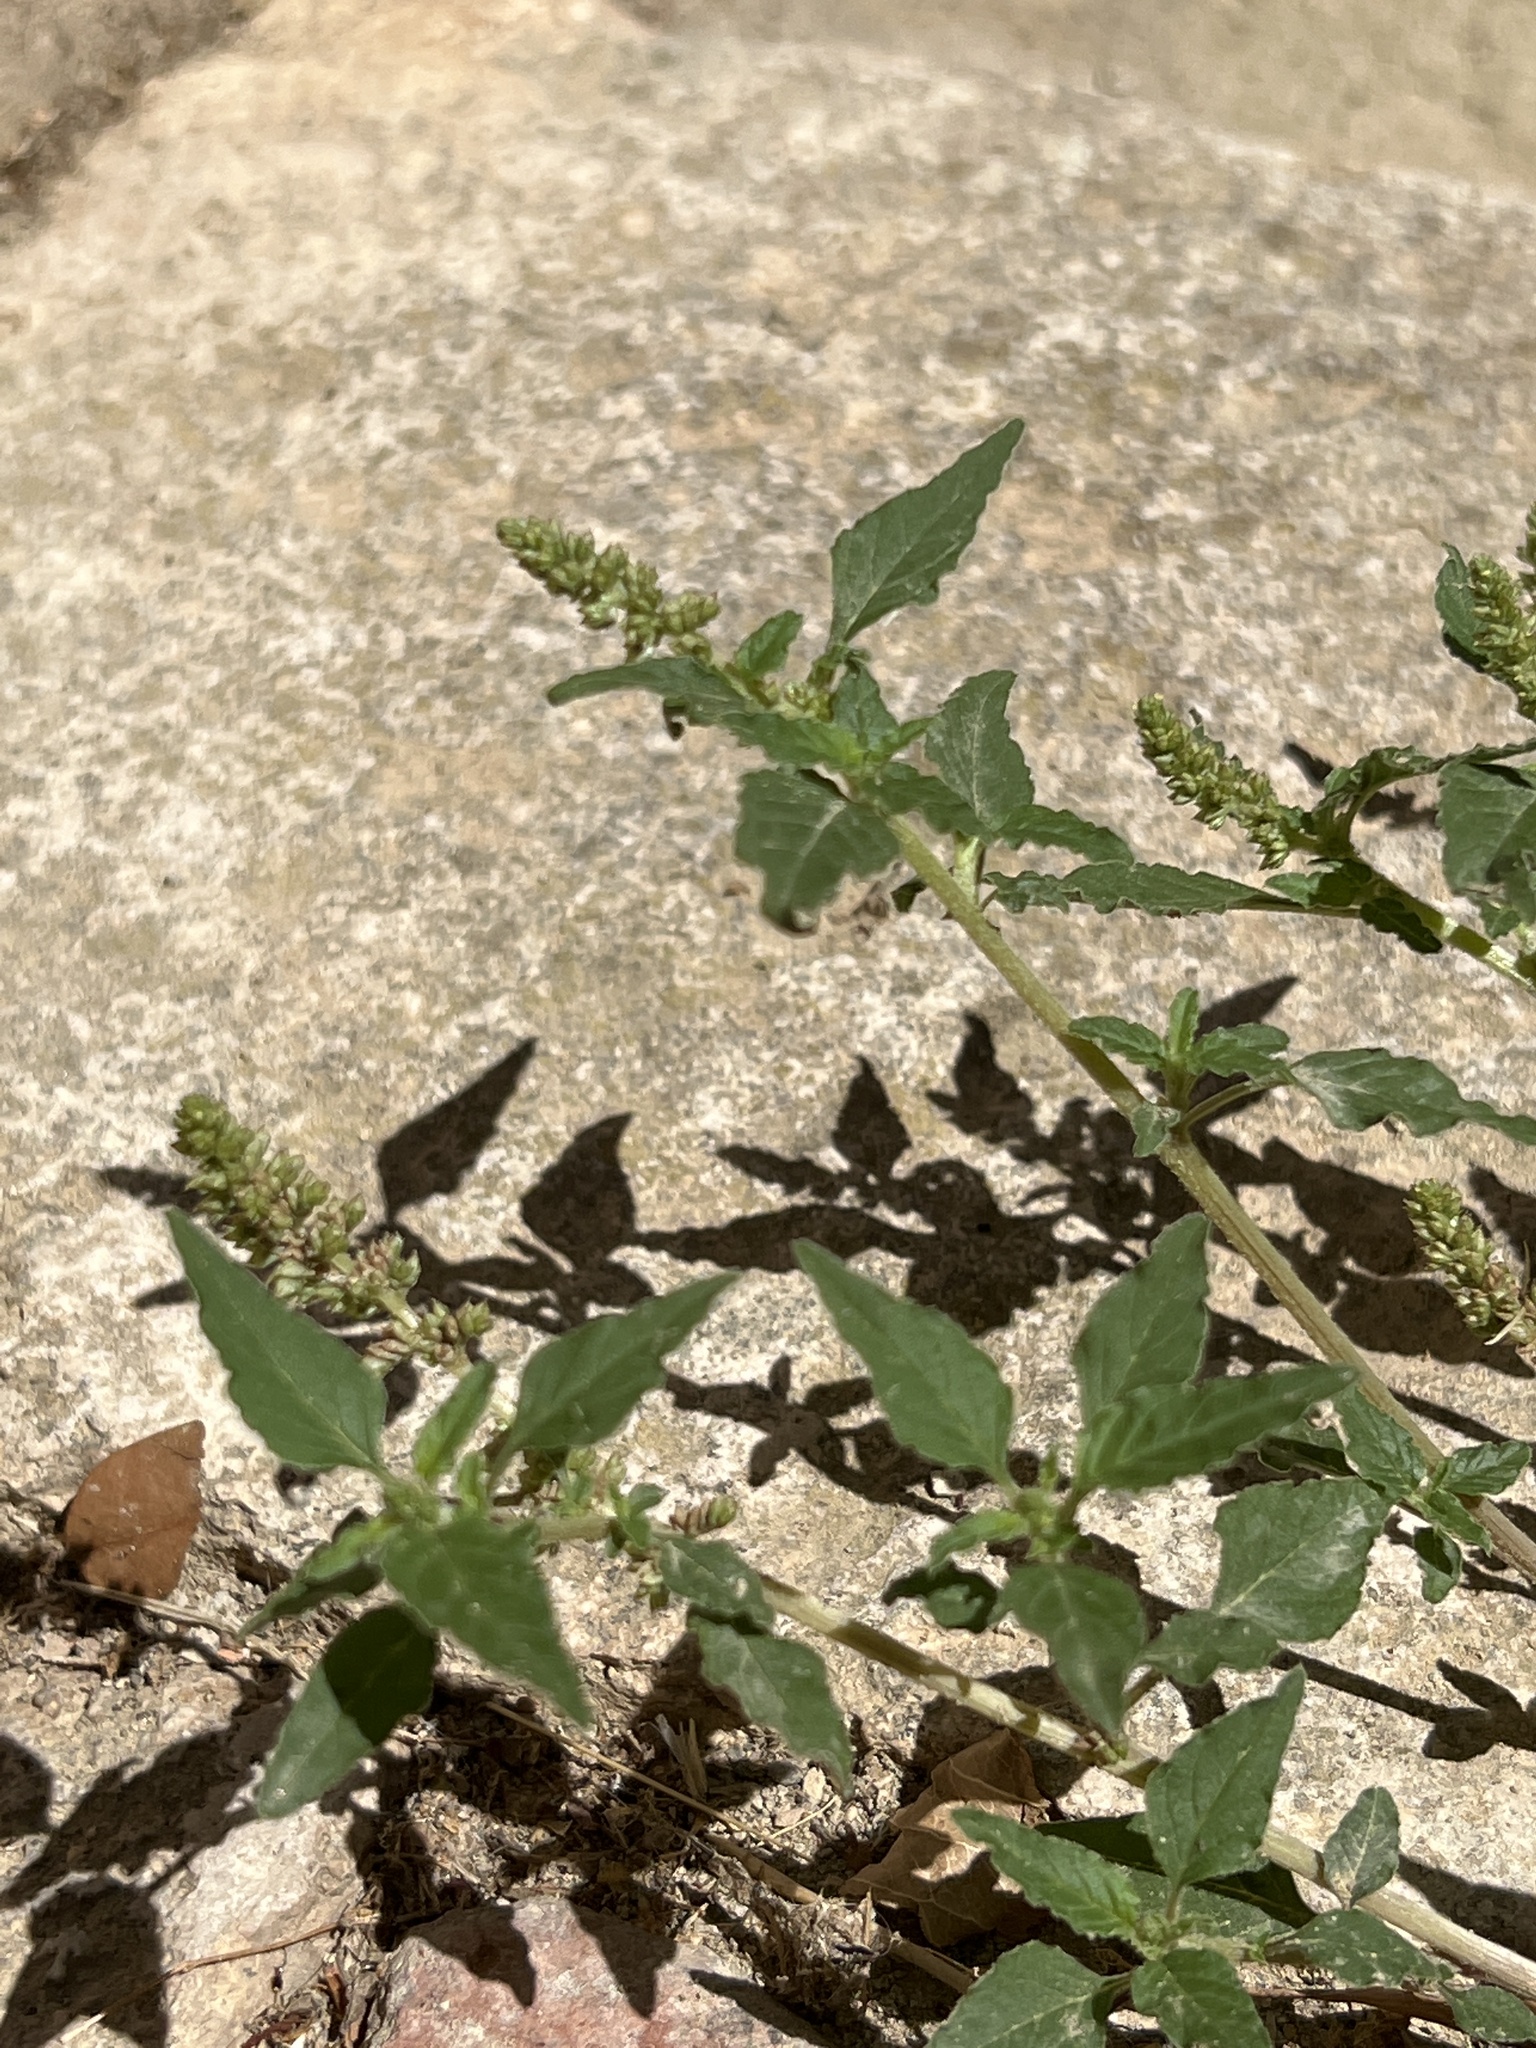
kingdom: Plantae
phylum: Tracheophyta
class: Magnoliopsida
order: Caryophyllales
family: Amaranthaceae
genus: Amaranthus
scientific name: Amaranthus deflexus
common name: Perennial pigweed
